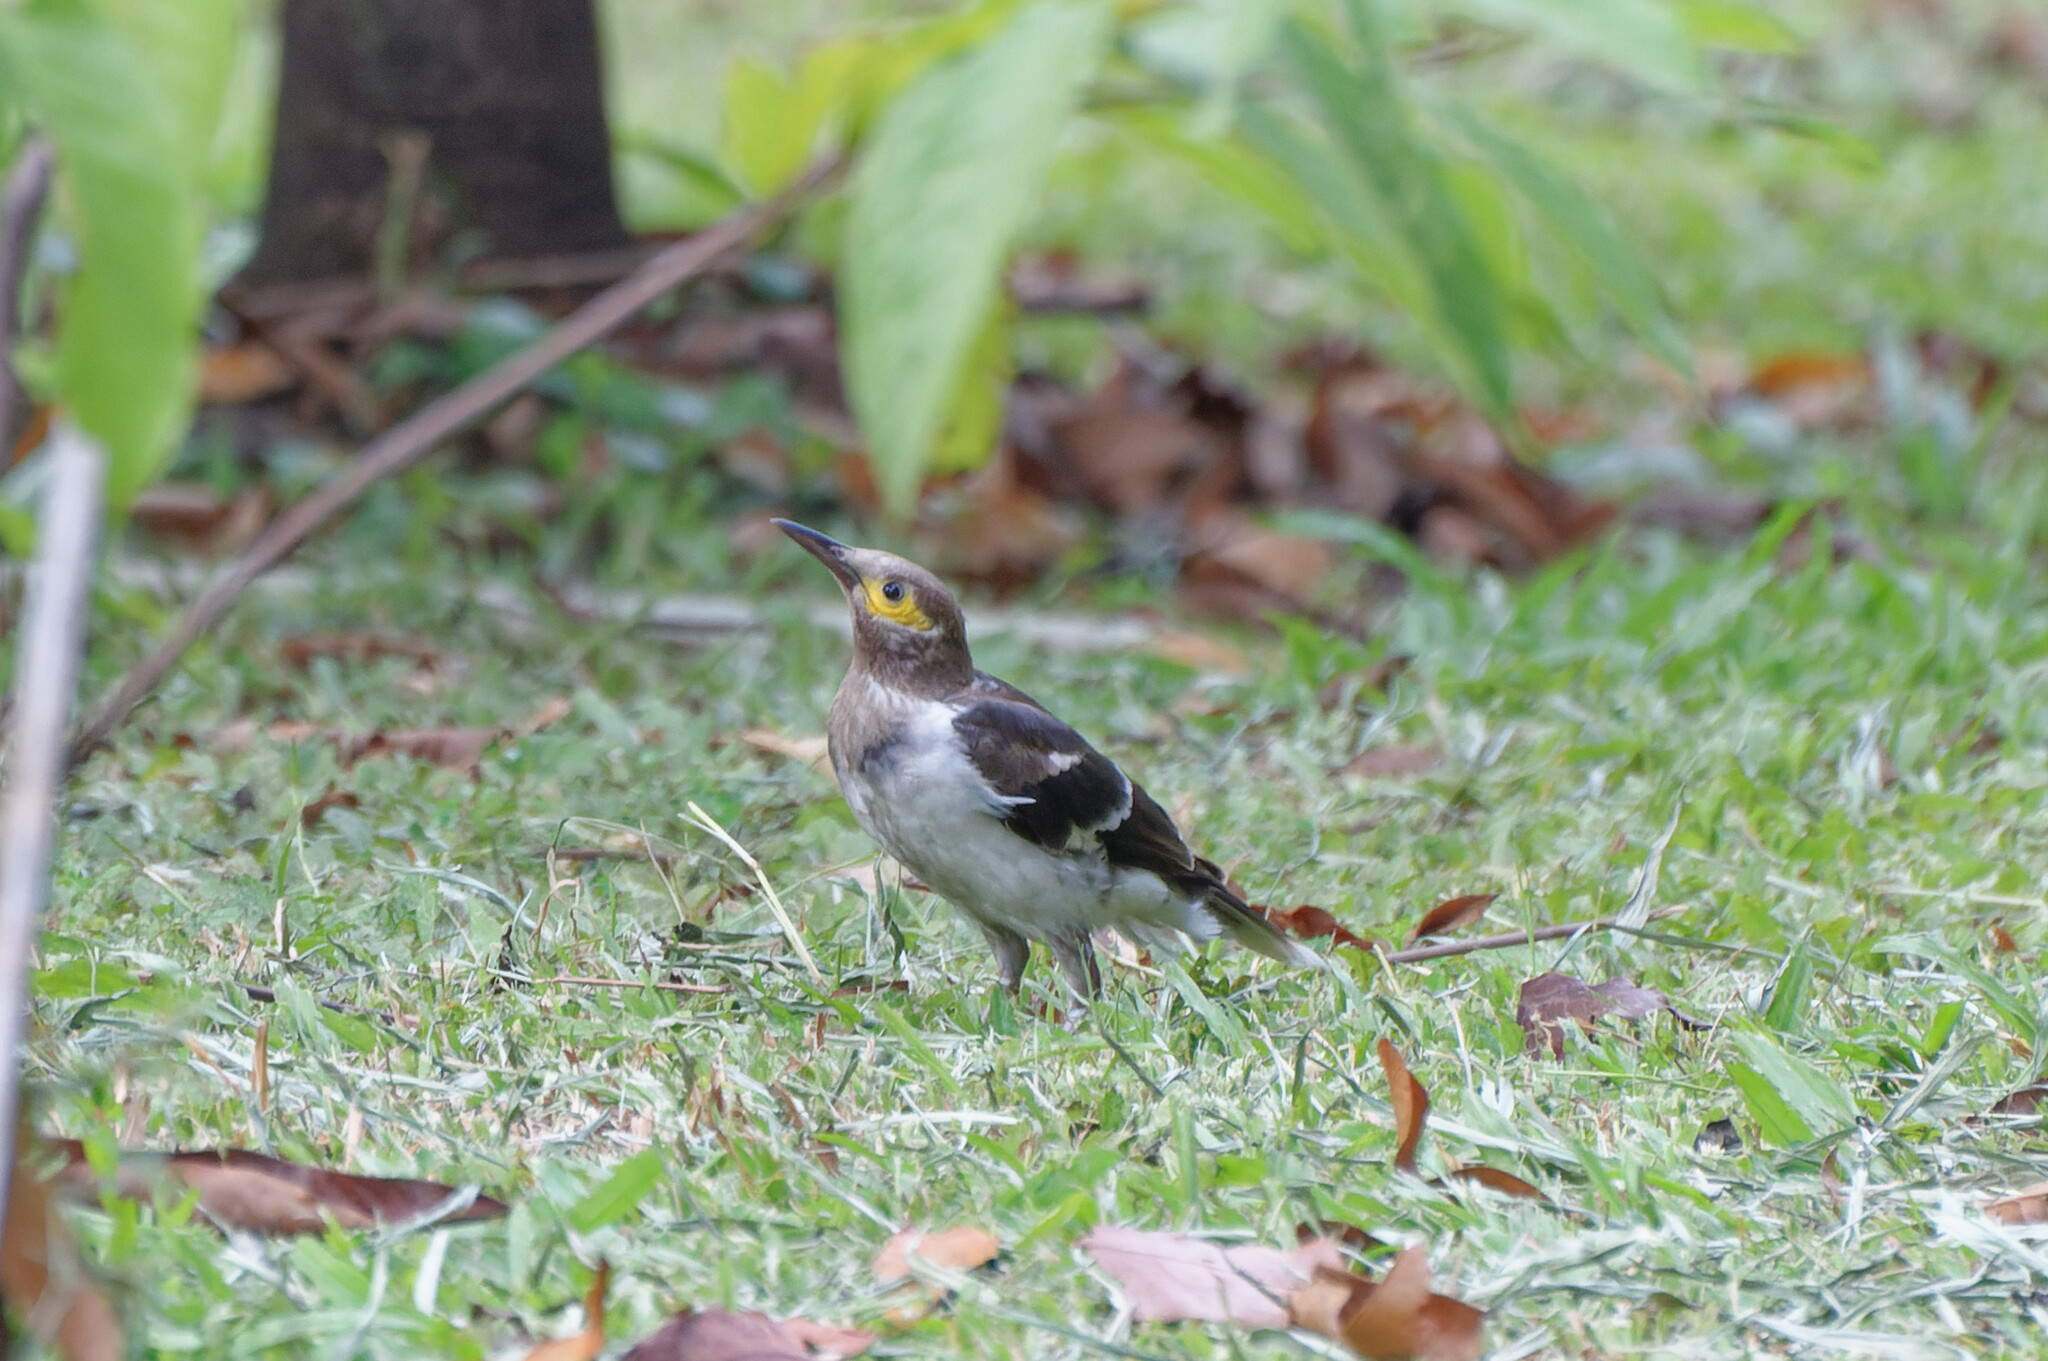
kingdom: Animalia
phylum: Chordata
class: Aves
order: Passeriformes
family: Sturnidae
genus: Gracupica
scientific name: Gracupica nigricollis
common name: Black-collared starling
